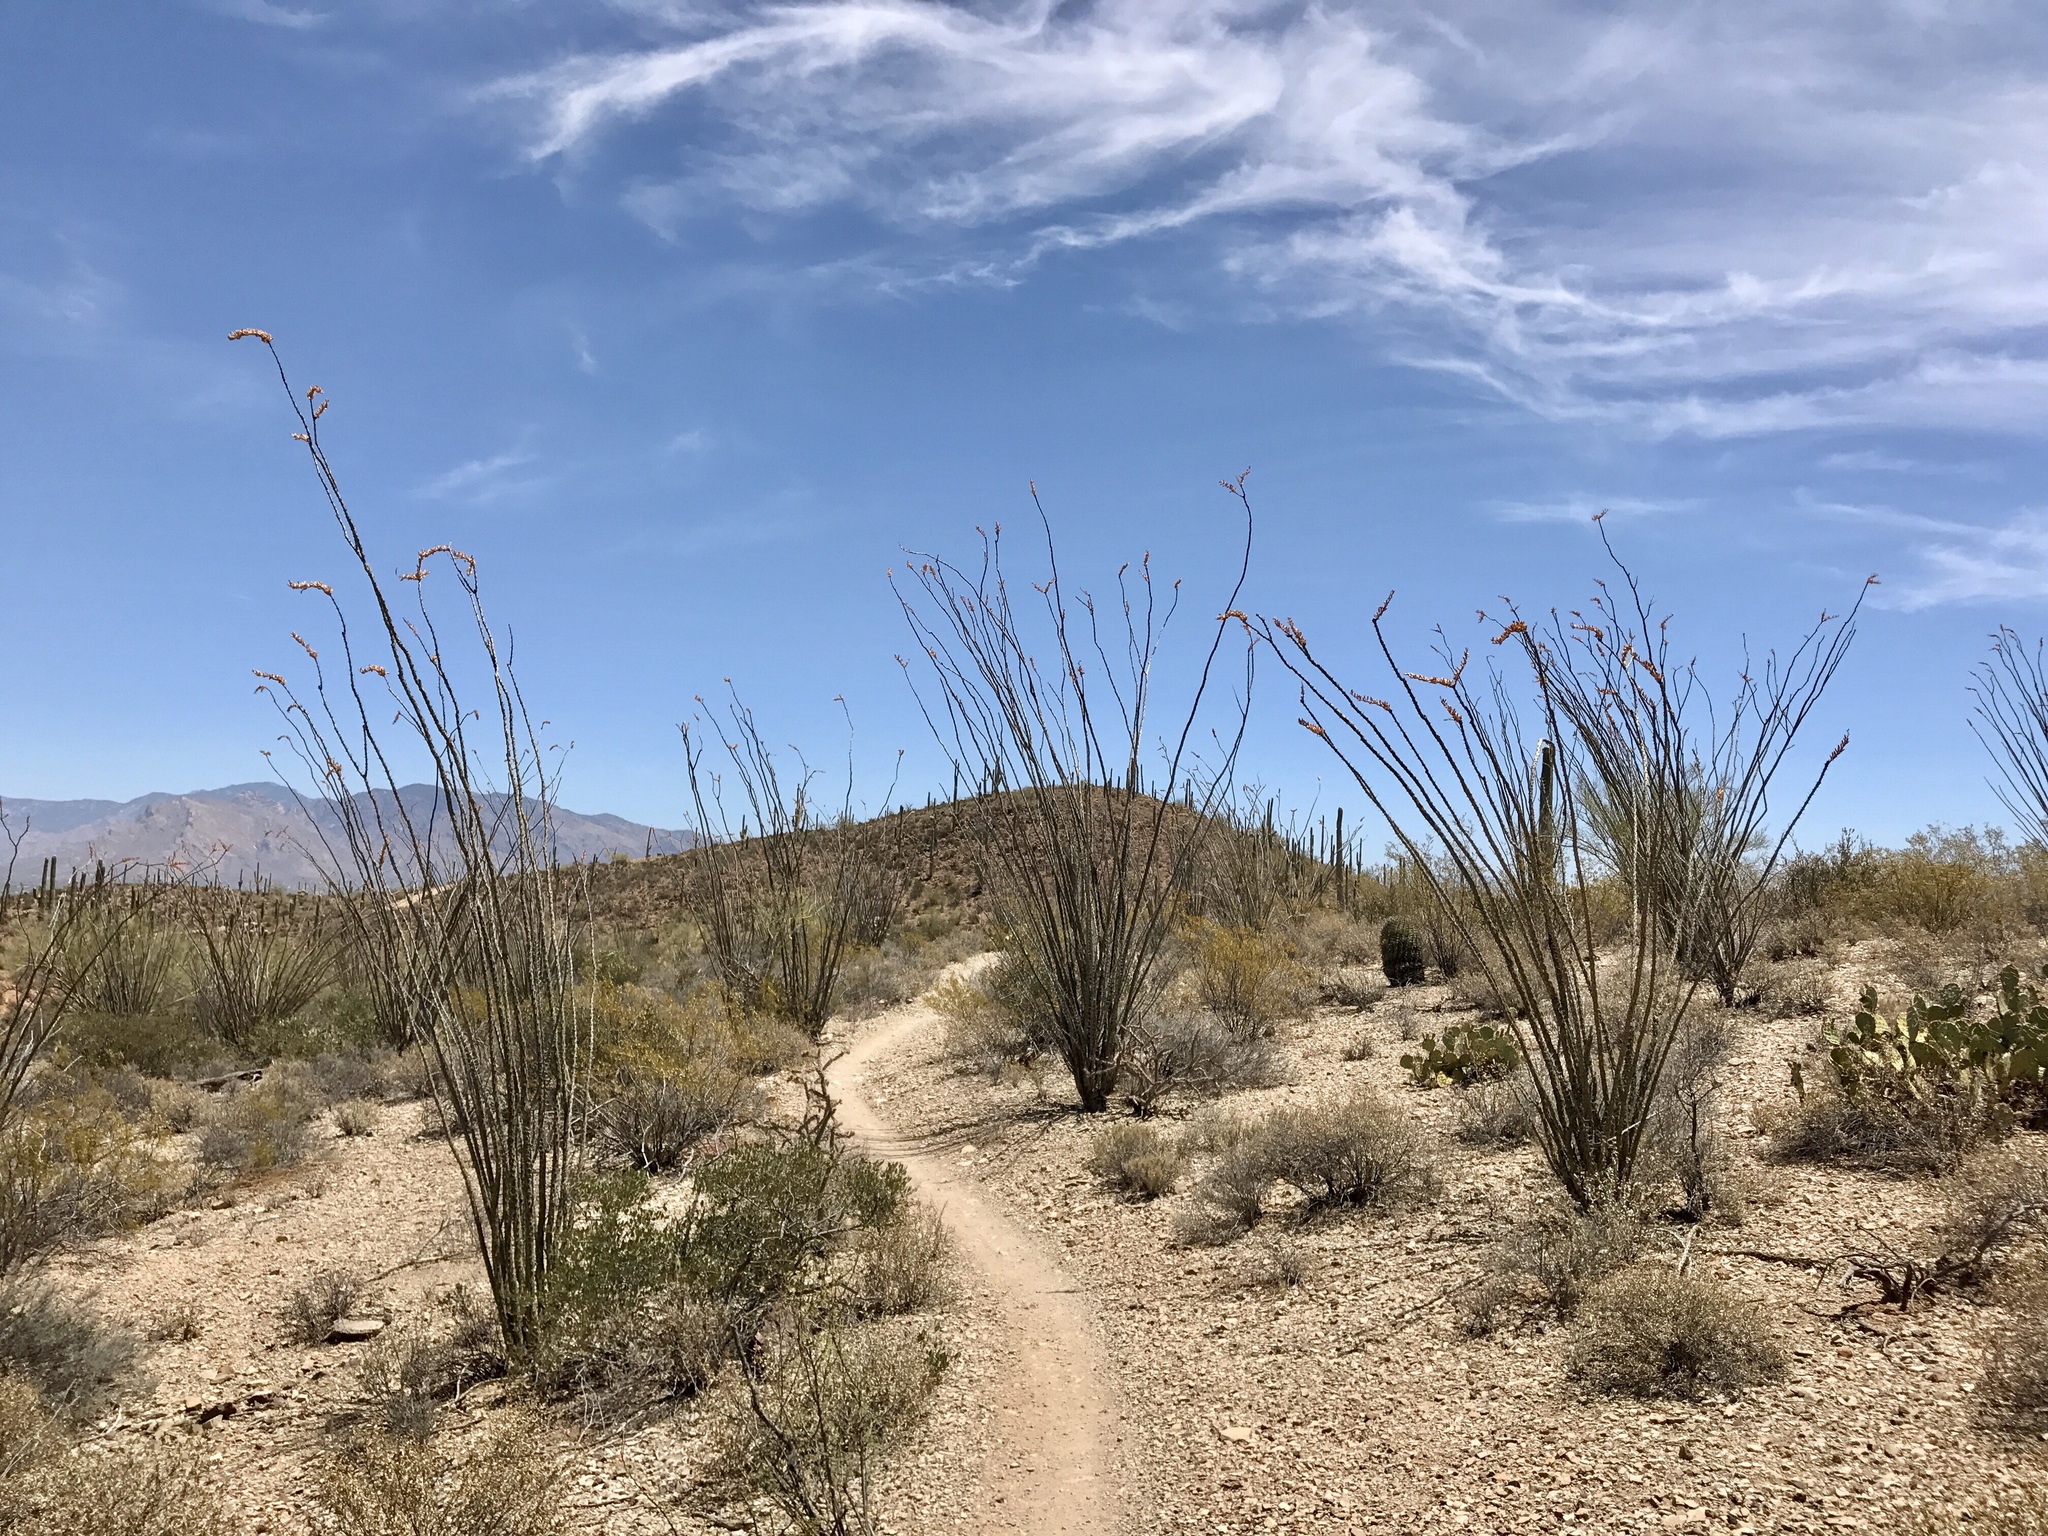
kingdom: Plantae
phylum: Tracheophyta
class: Magnoliopsida
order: Ericales
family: Fouquieriaceae
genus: Fouquieria
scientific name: Fouquieria splendens
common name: Vine-cactus
